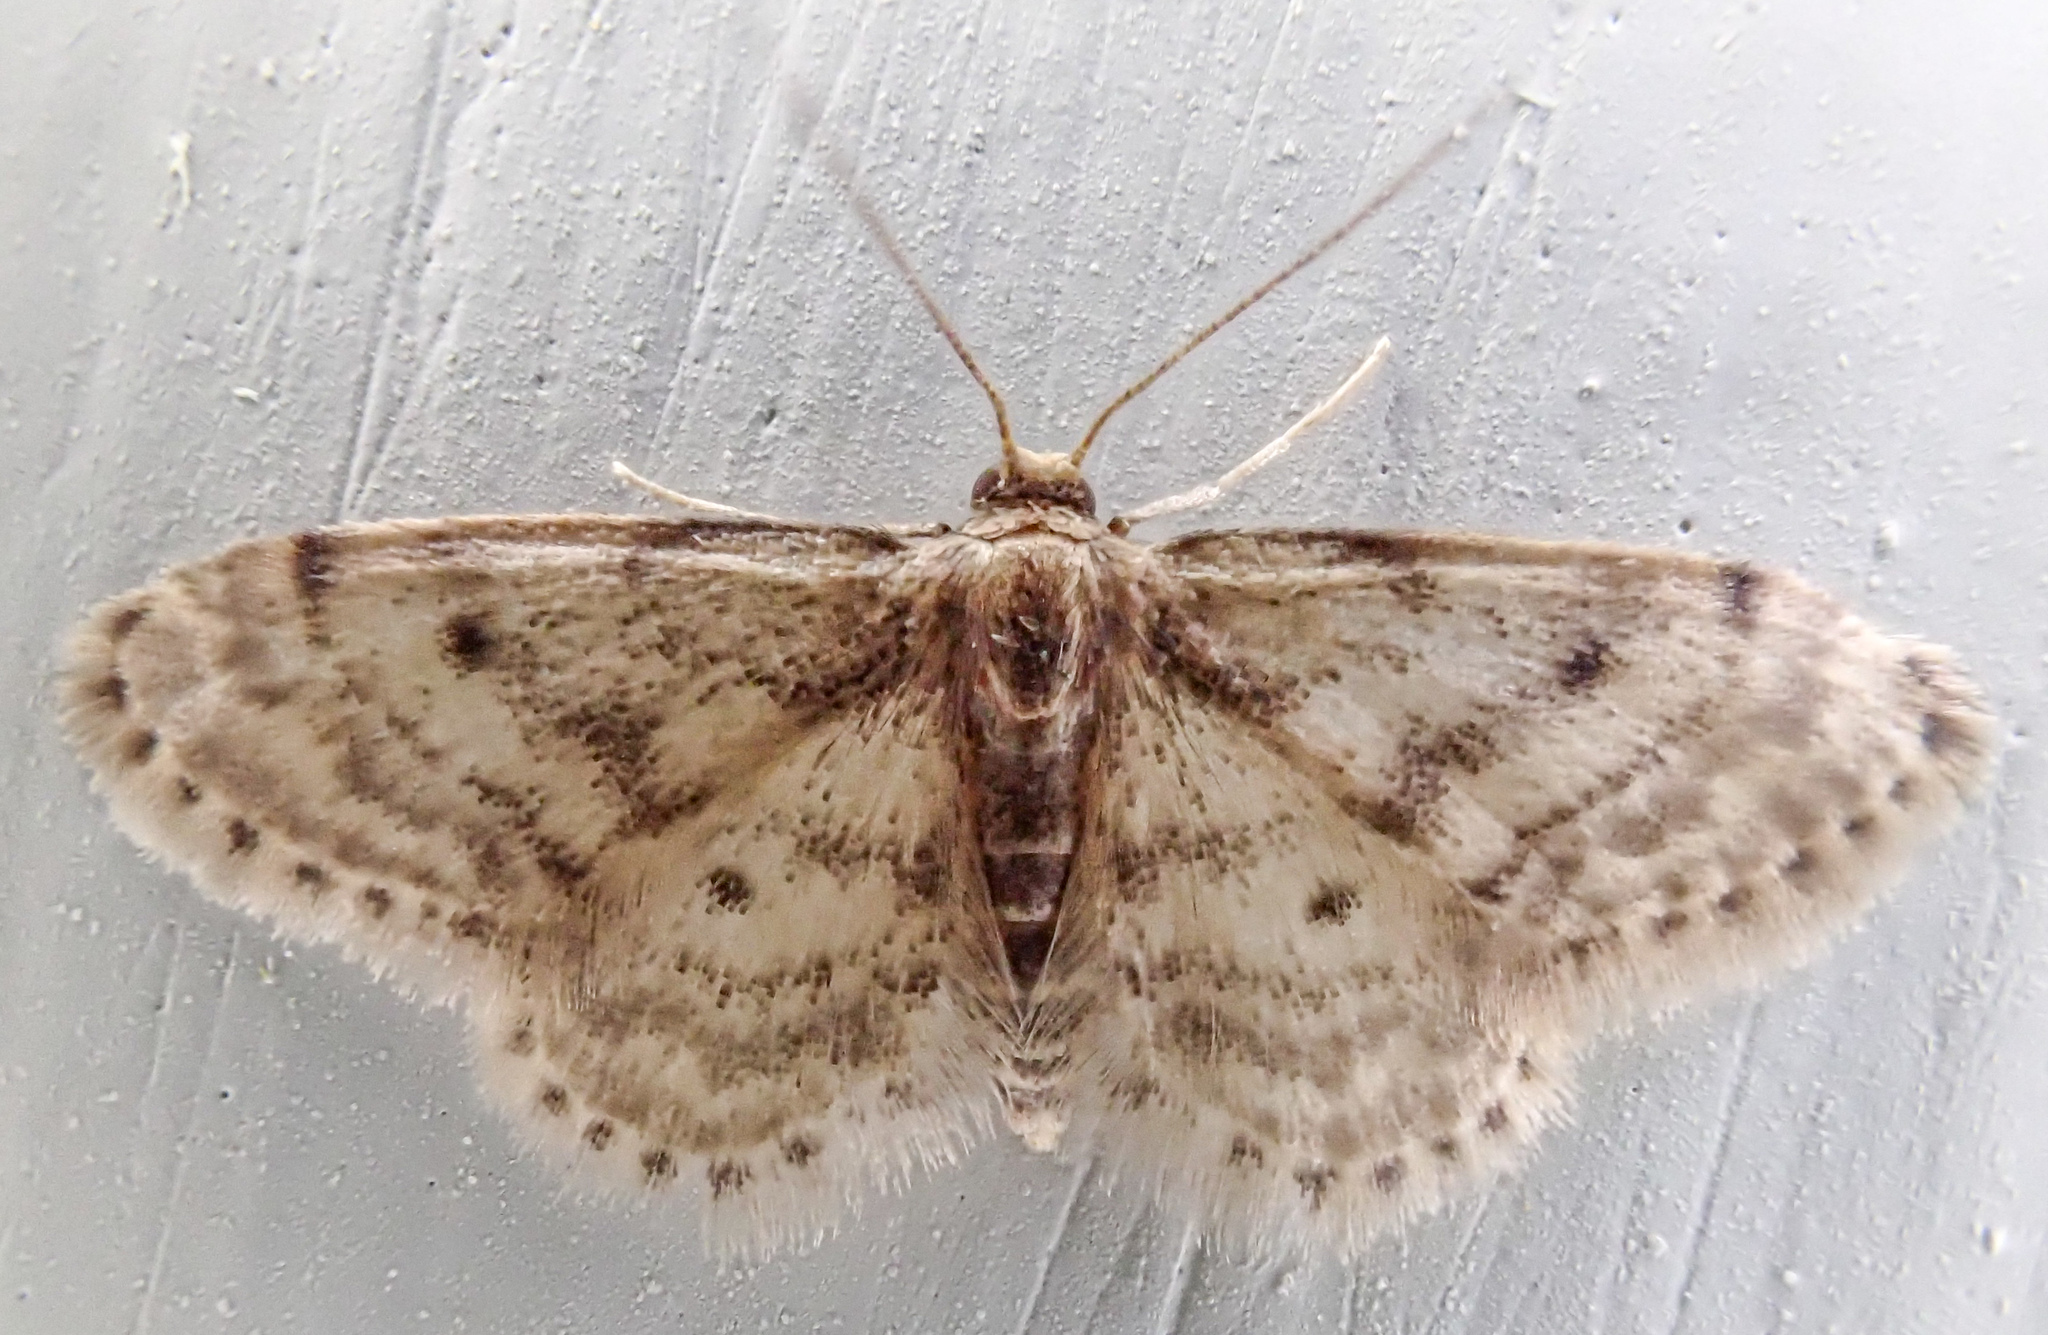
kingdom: Animalia
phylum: Arthropoda
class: Insecta
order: Lepidoptera
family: Geometridae
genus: Idaea
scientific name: Idaea bonifata
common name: Fortunate wave
